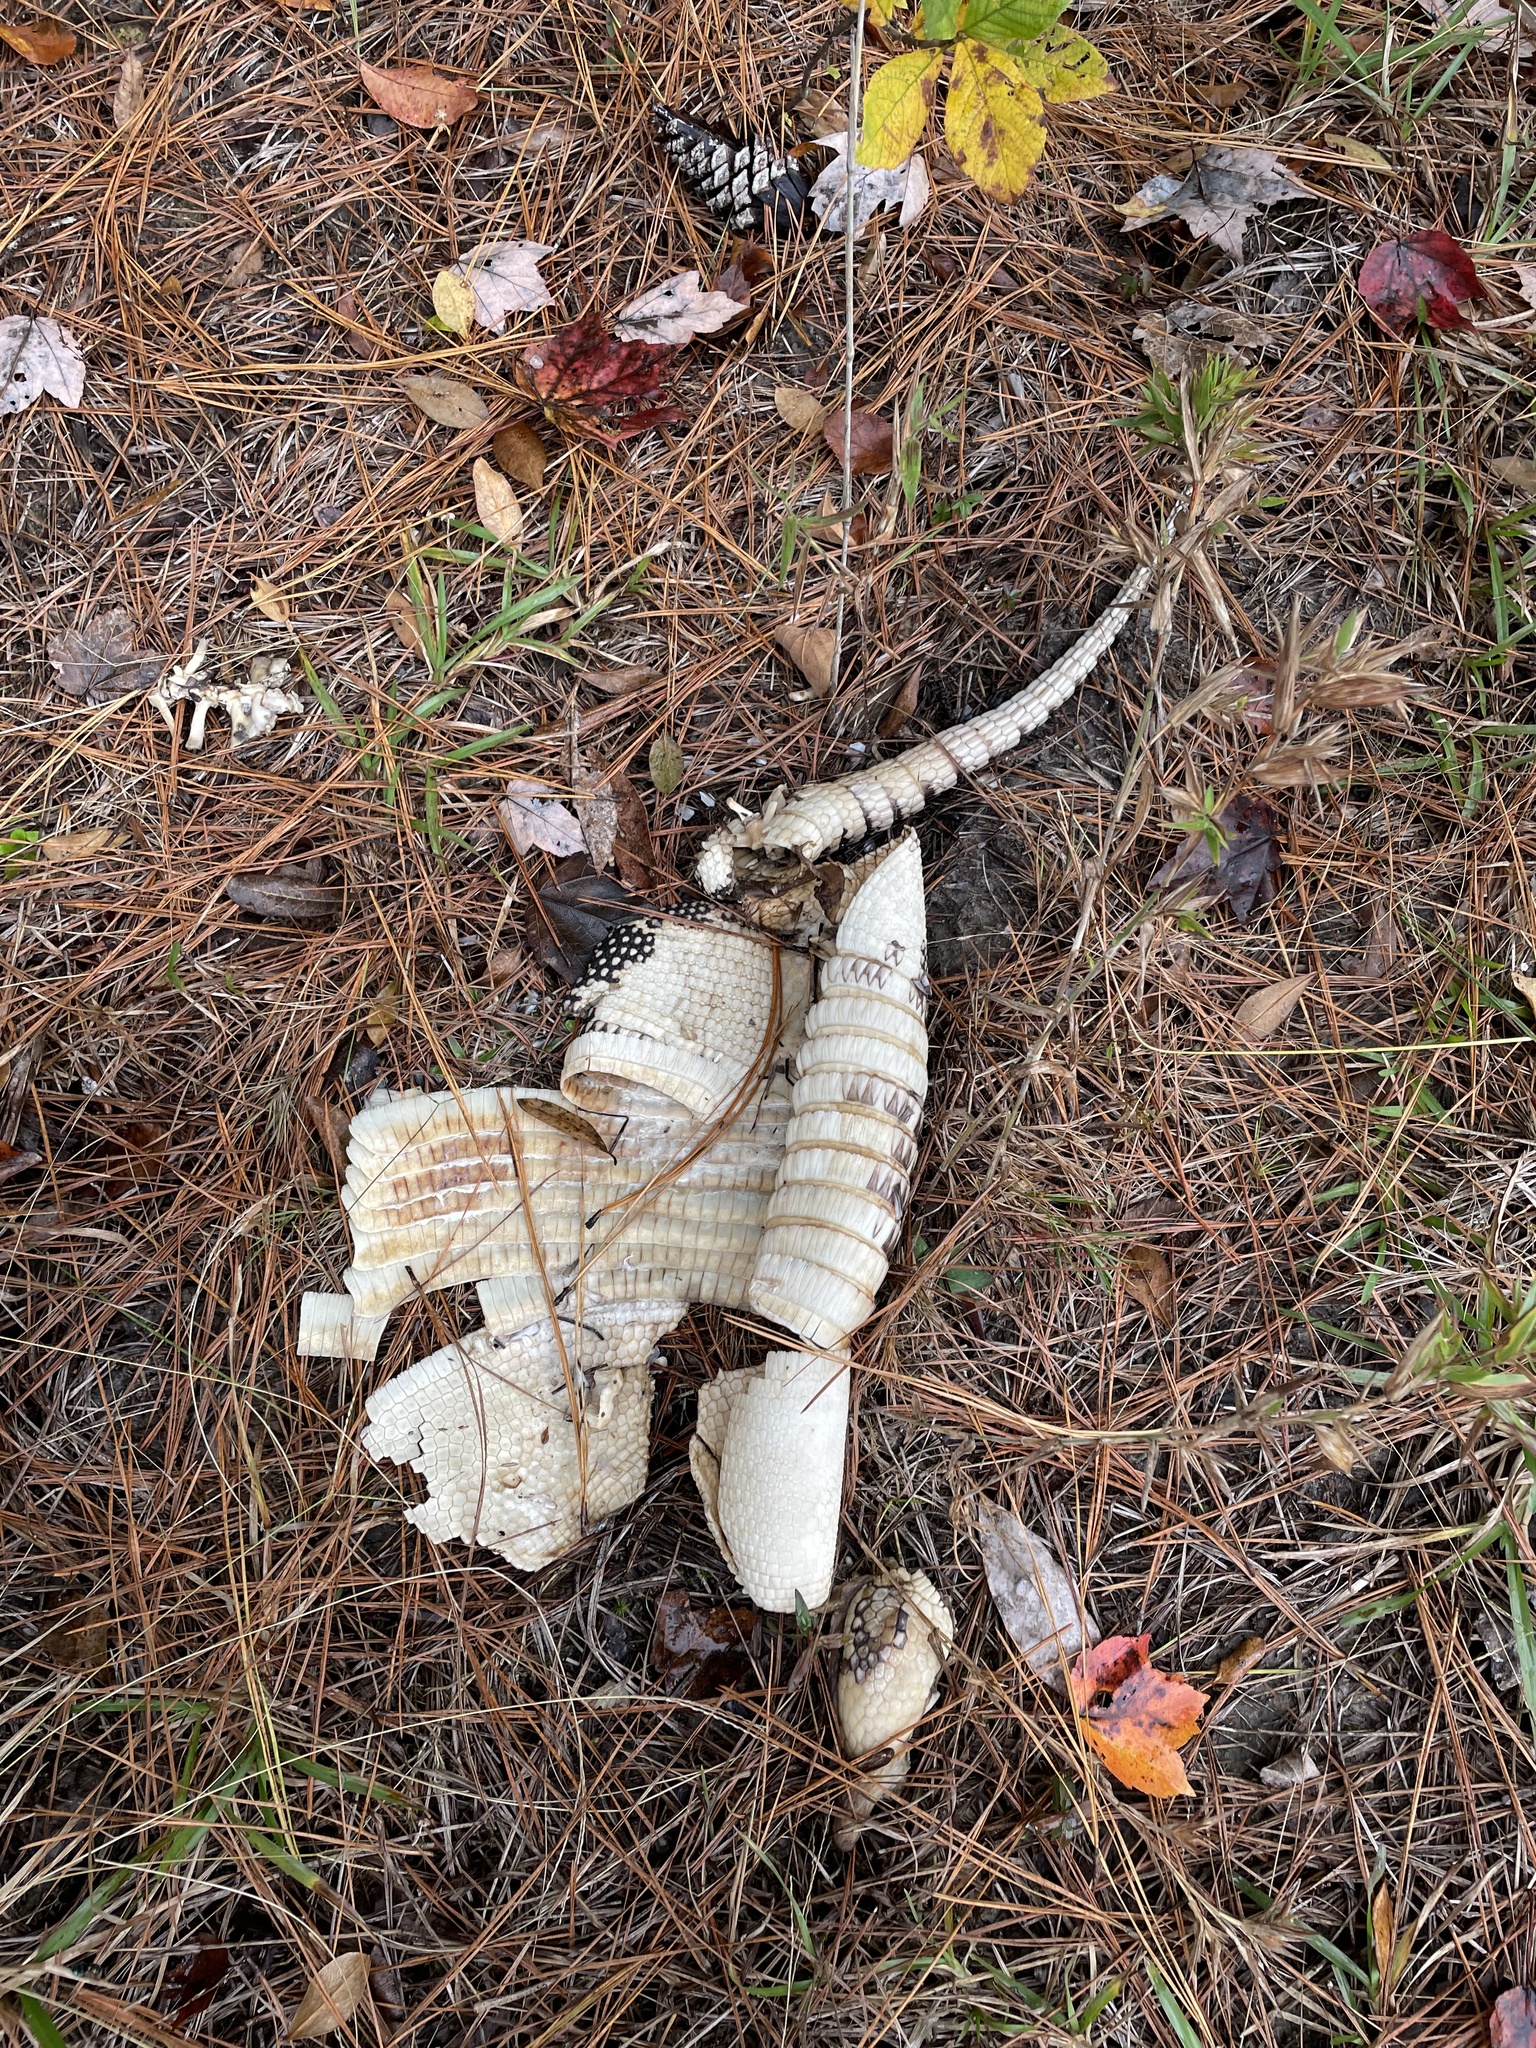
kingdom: Animalia
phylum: Chordata
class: Mammalia
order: Cingulata
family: Dasypodidae
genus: Dasypus
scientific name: Dasypus novemcinctus
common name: Nine-banded armadillo
